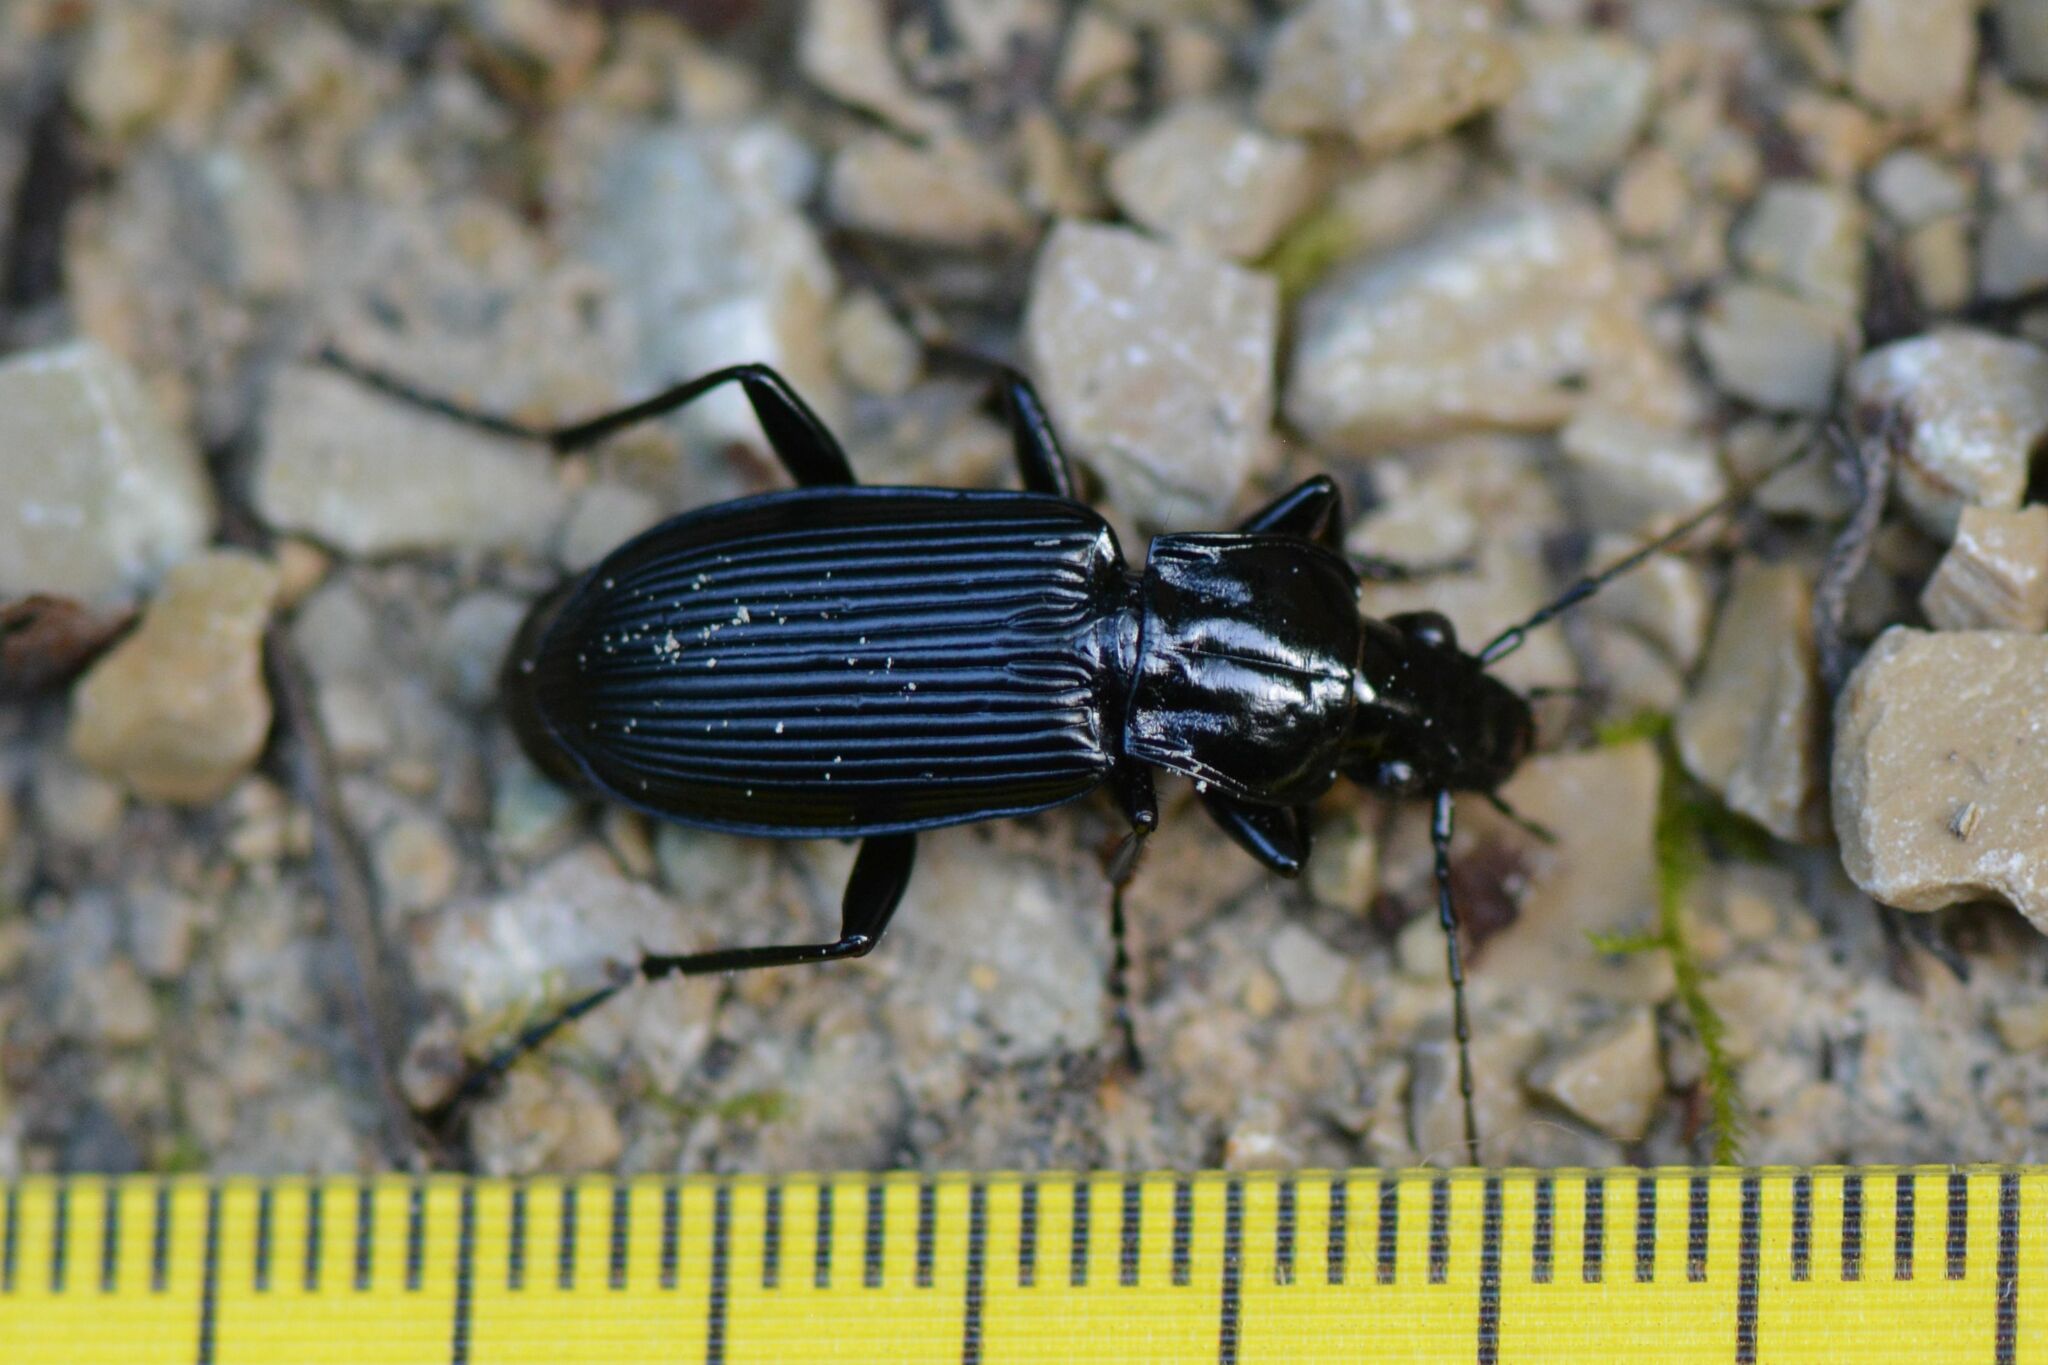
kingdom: Animalia
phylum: Arthropoda
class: Insecta
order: Coleoptera
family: Carabidae
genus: Pterostichus
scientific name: Pterostichus niger
